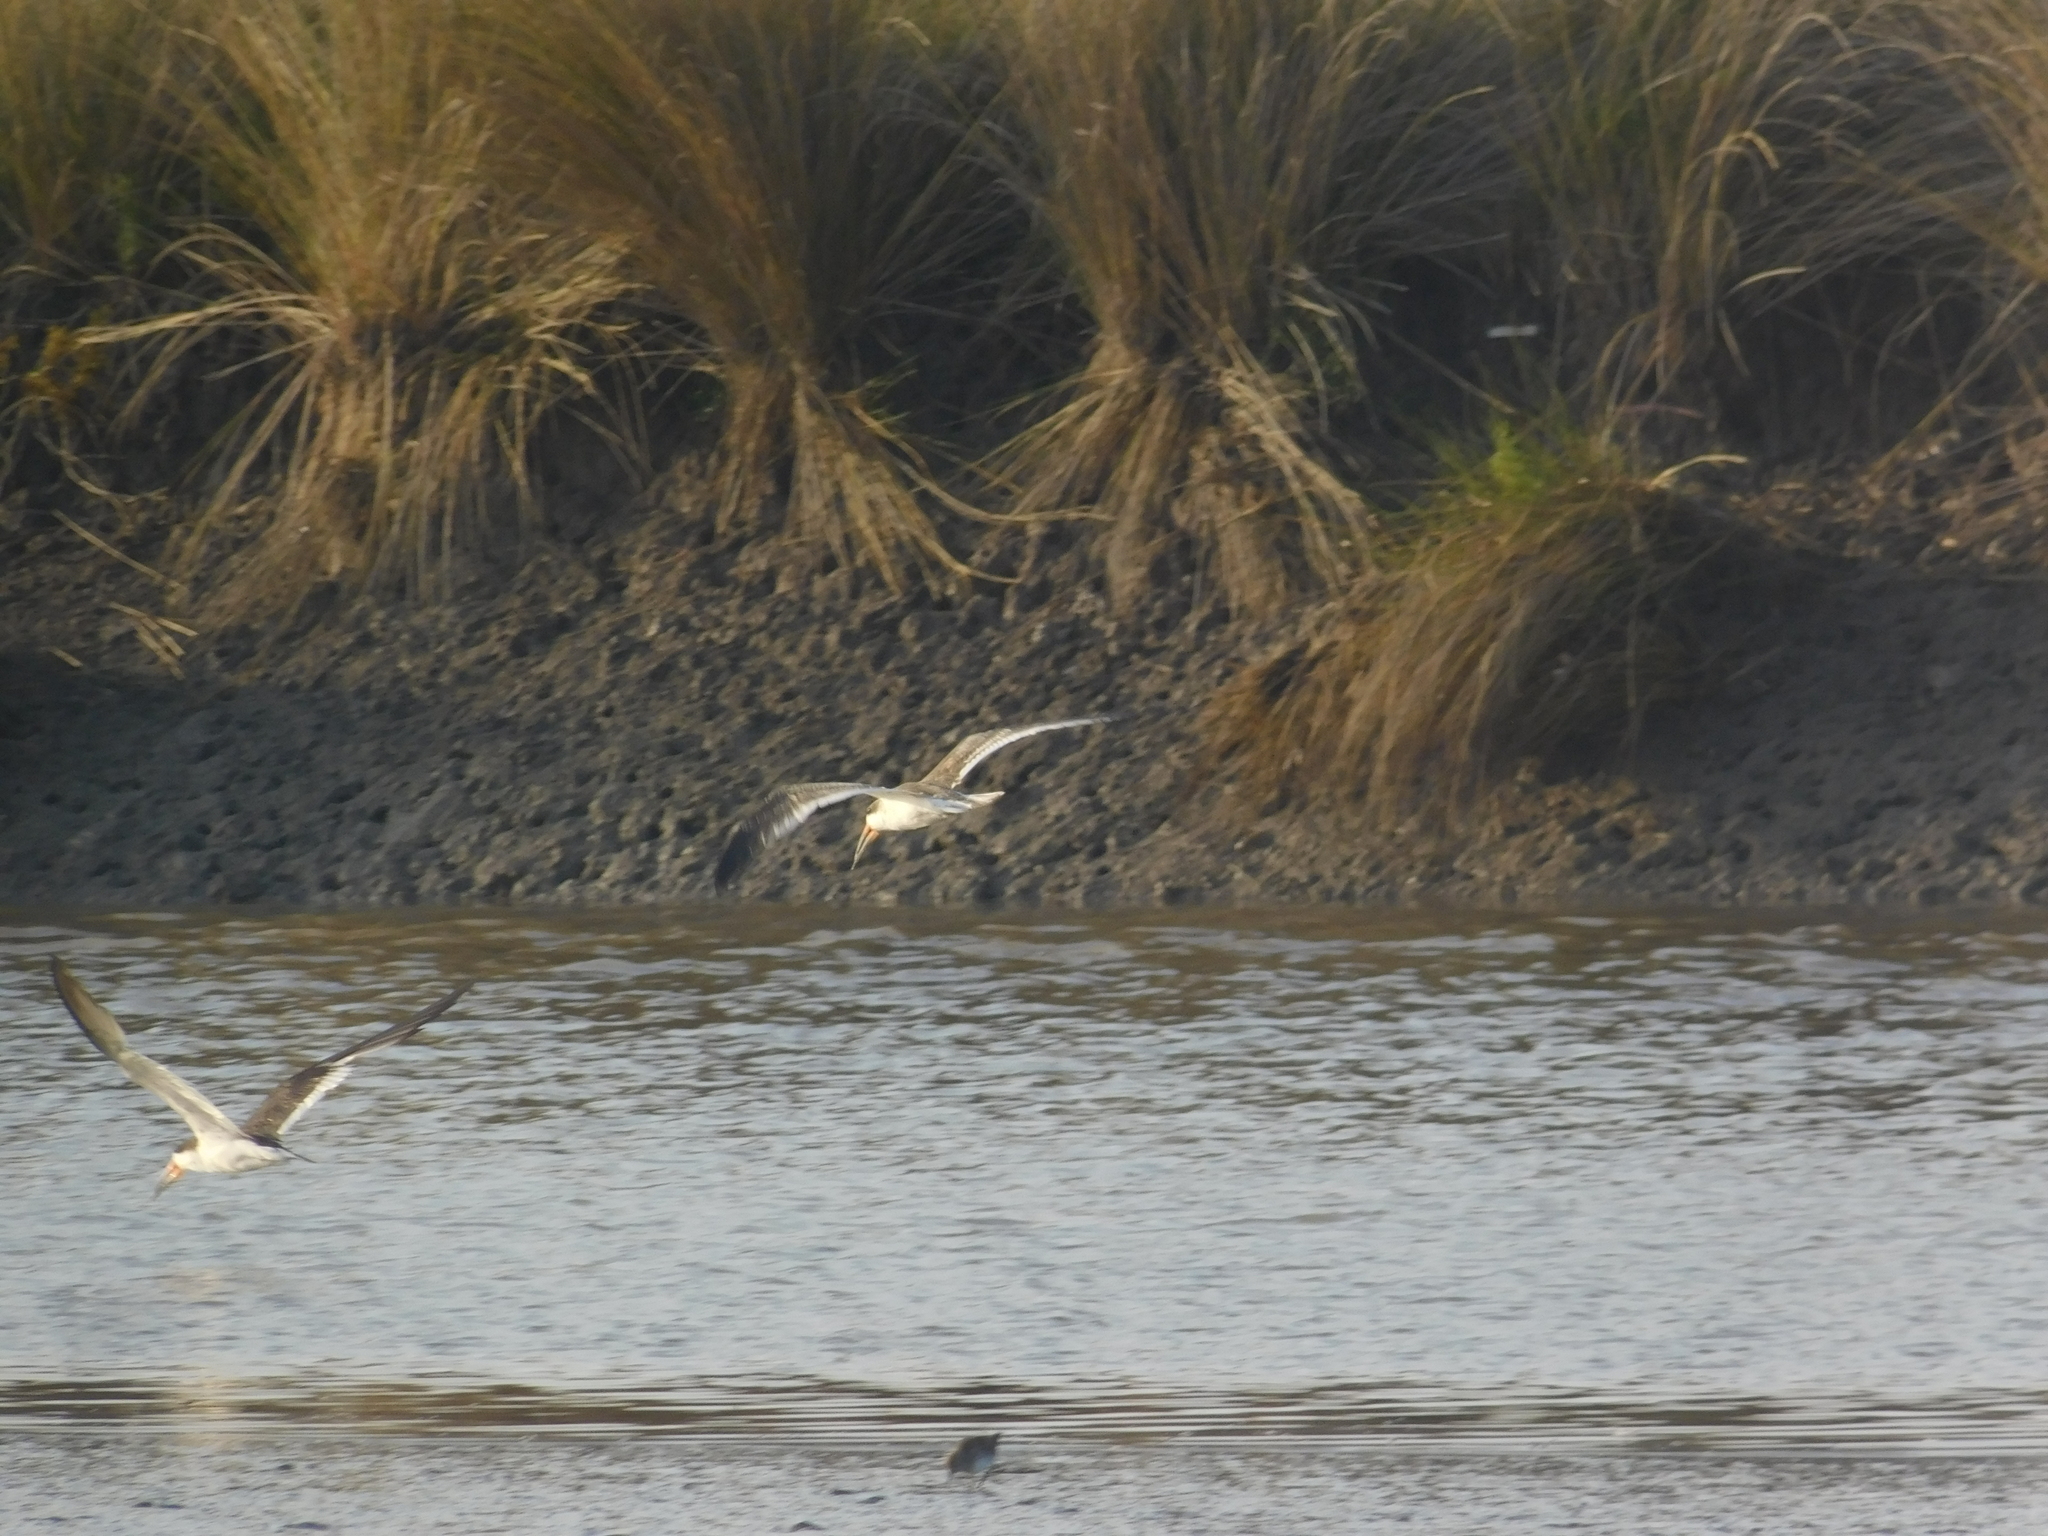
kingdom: Animalia
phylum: Chordata
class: Aves
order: Charadriiformes
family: Laridae
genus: Rynchops
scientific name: Rynchops niger
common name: Black skimmer
